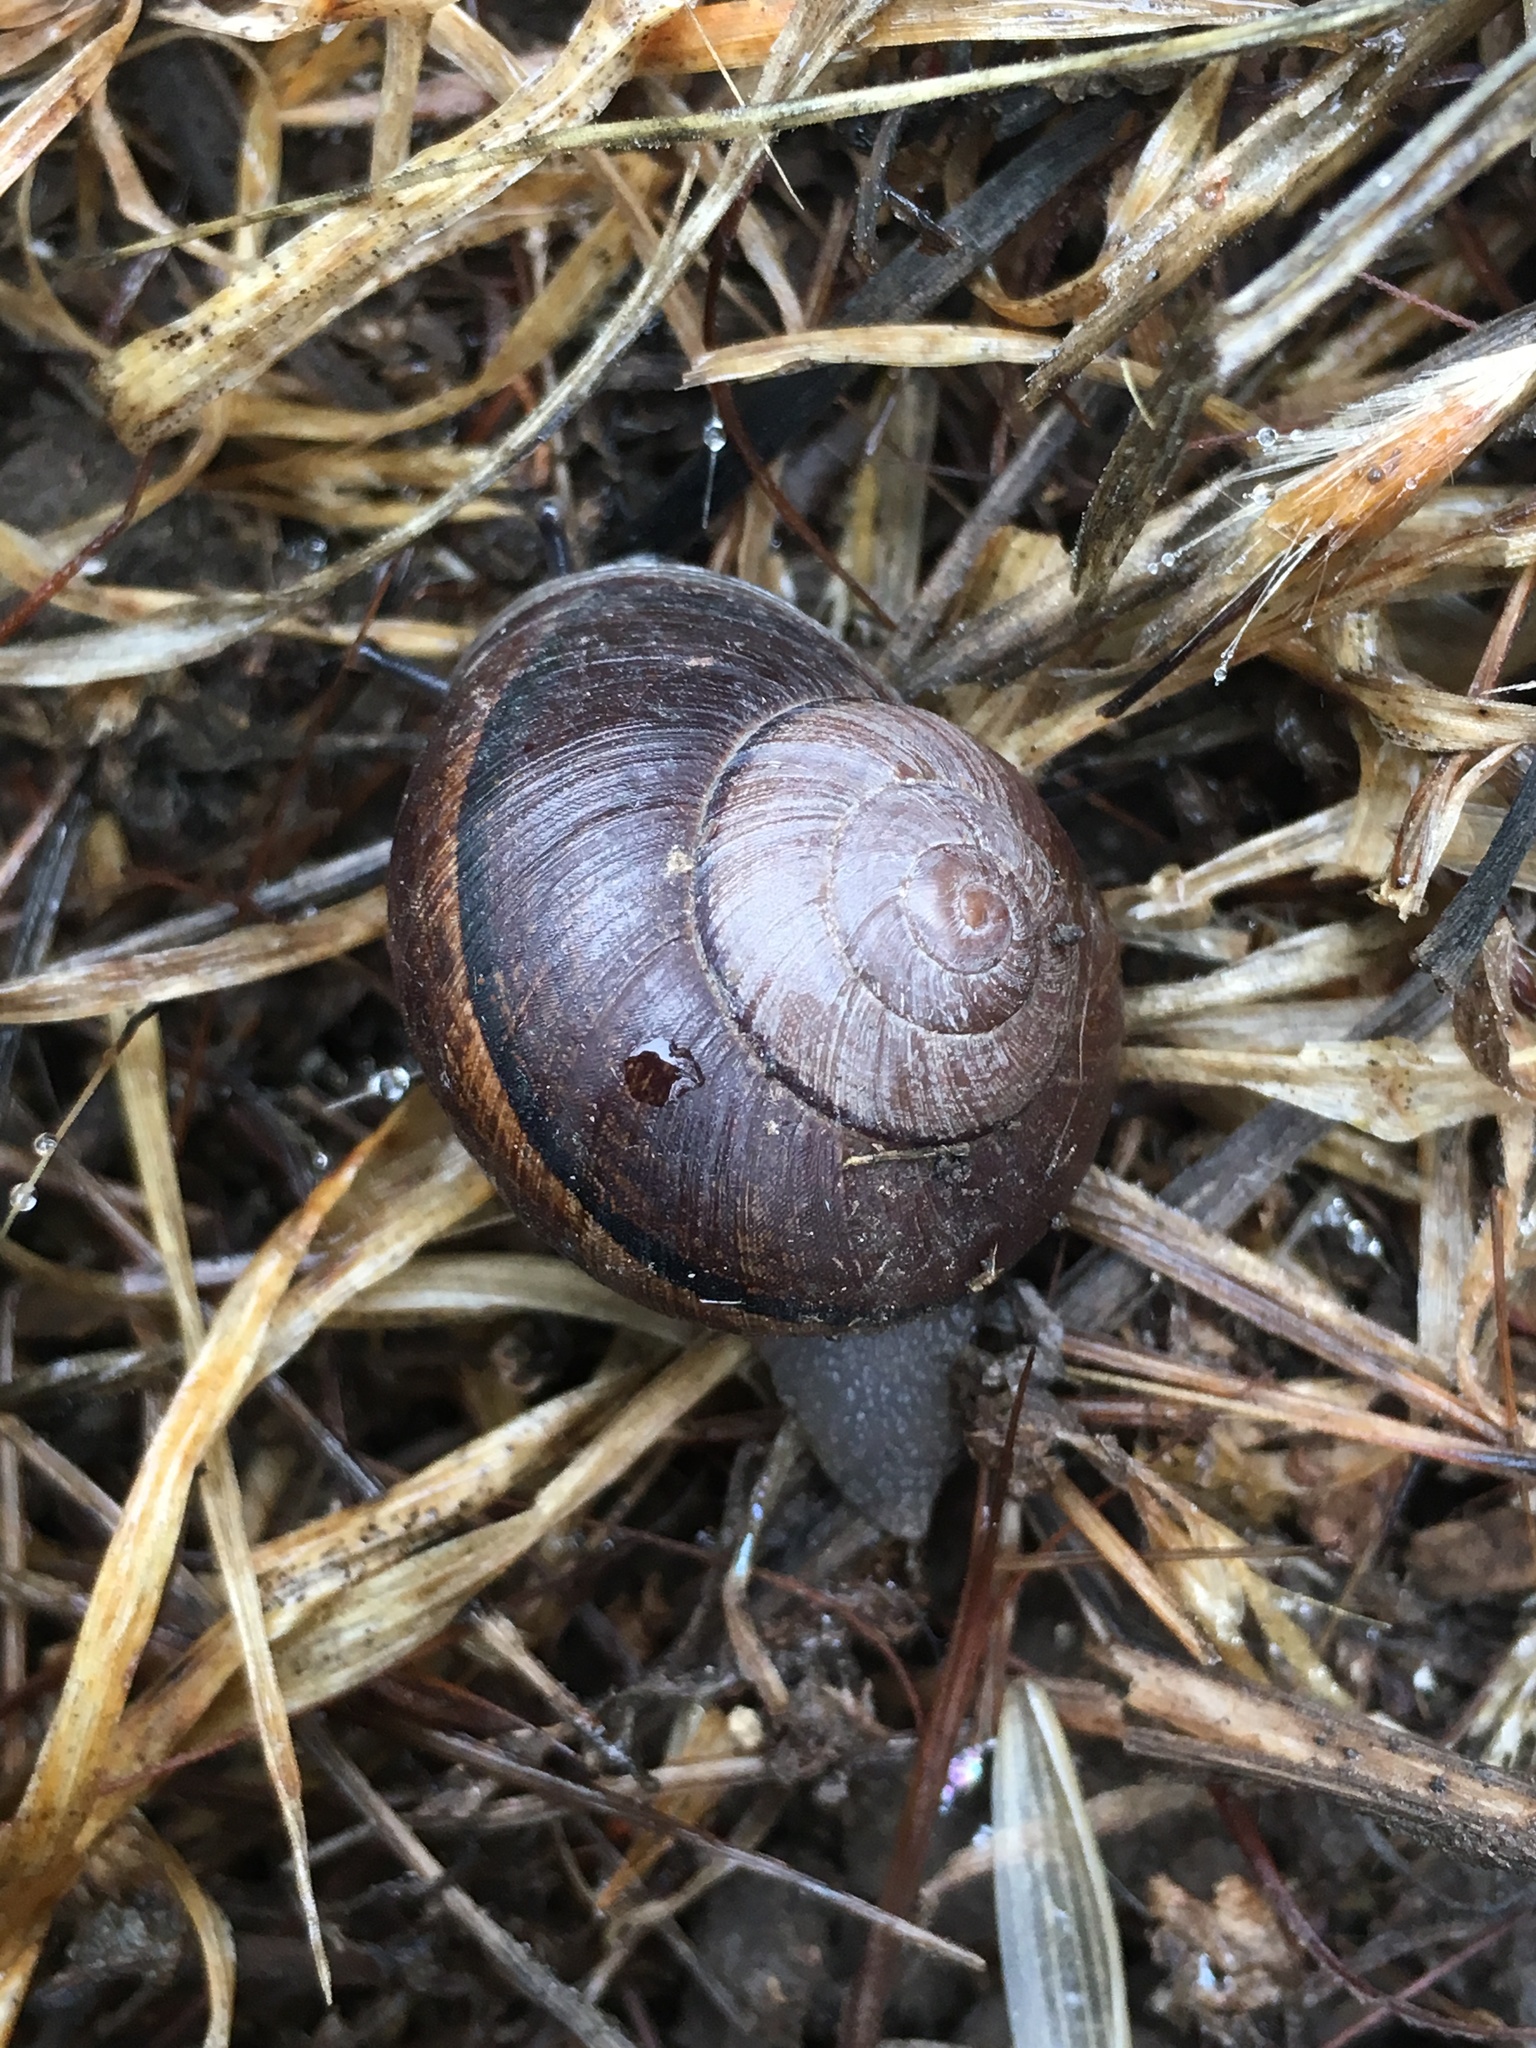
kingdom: Animalia
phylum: Mollusca
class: Gastropoda
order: Stylommatophora
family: Xanthonychidae
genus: Xerarionta
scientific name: Xerarionta redimita
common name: Wreathed cactus snail
